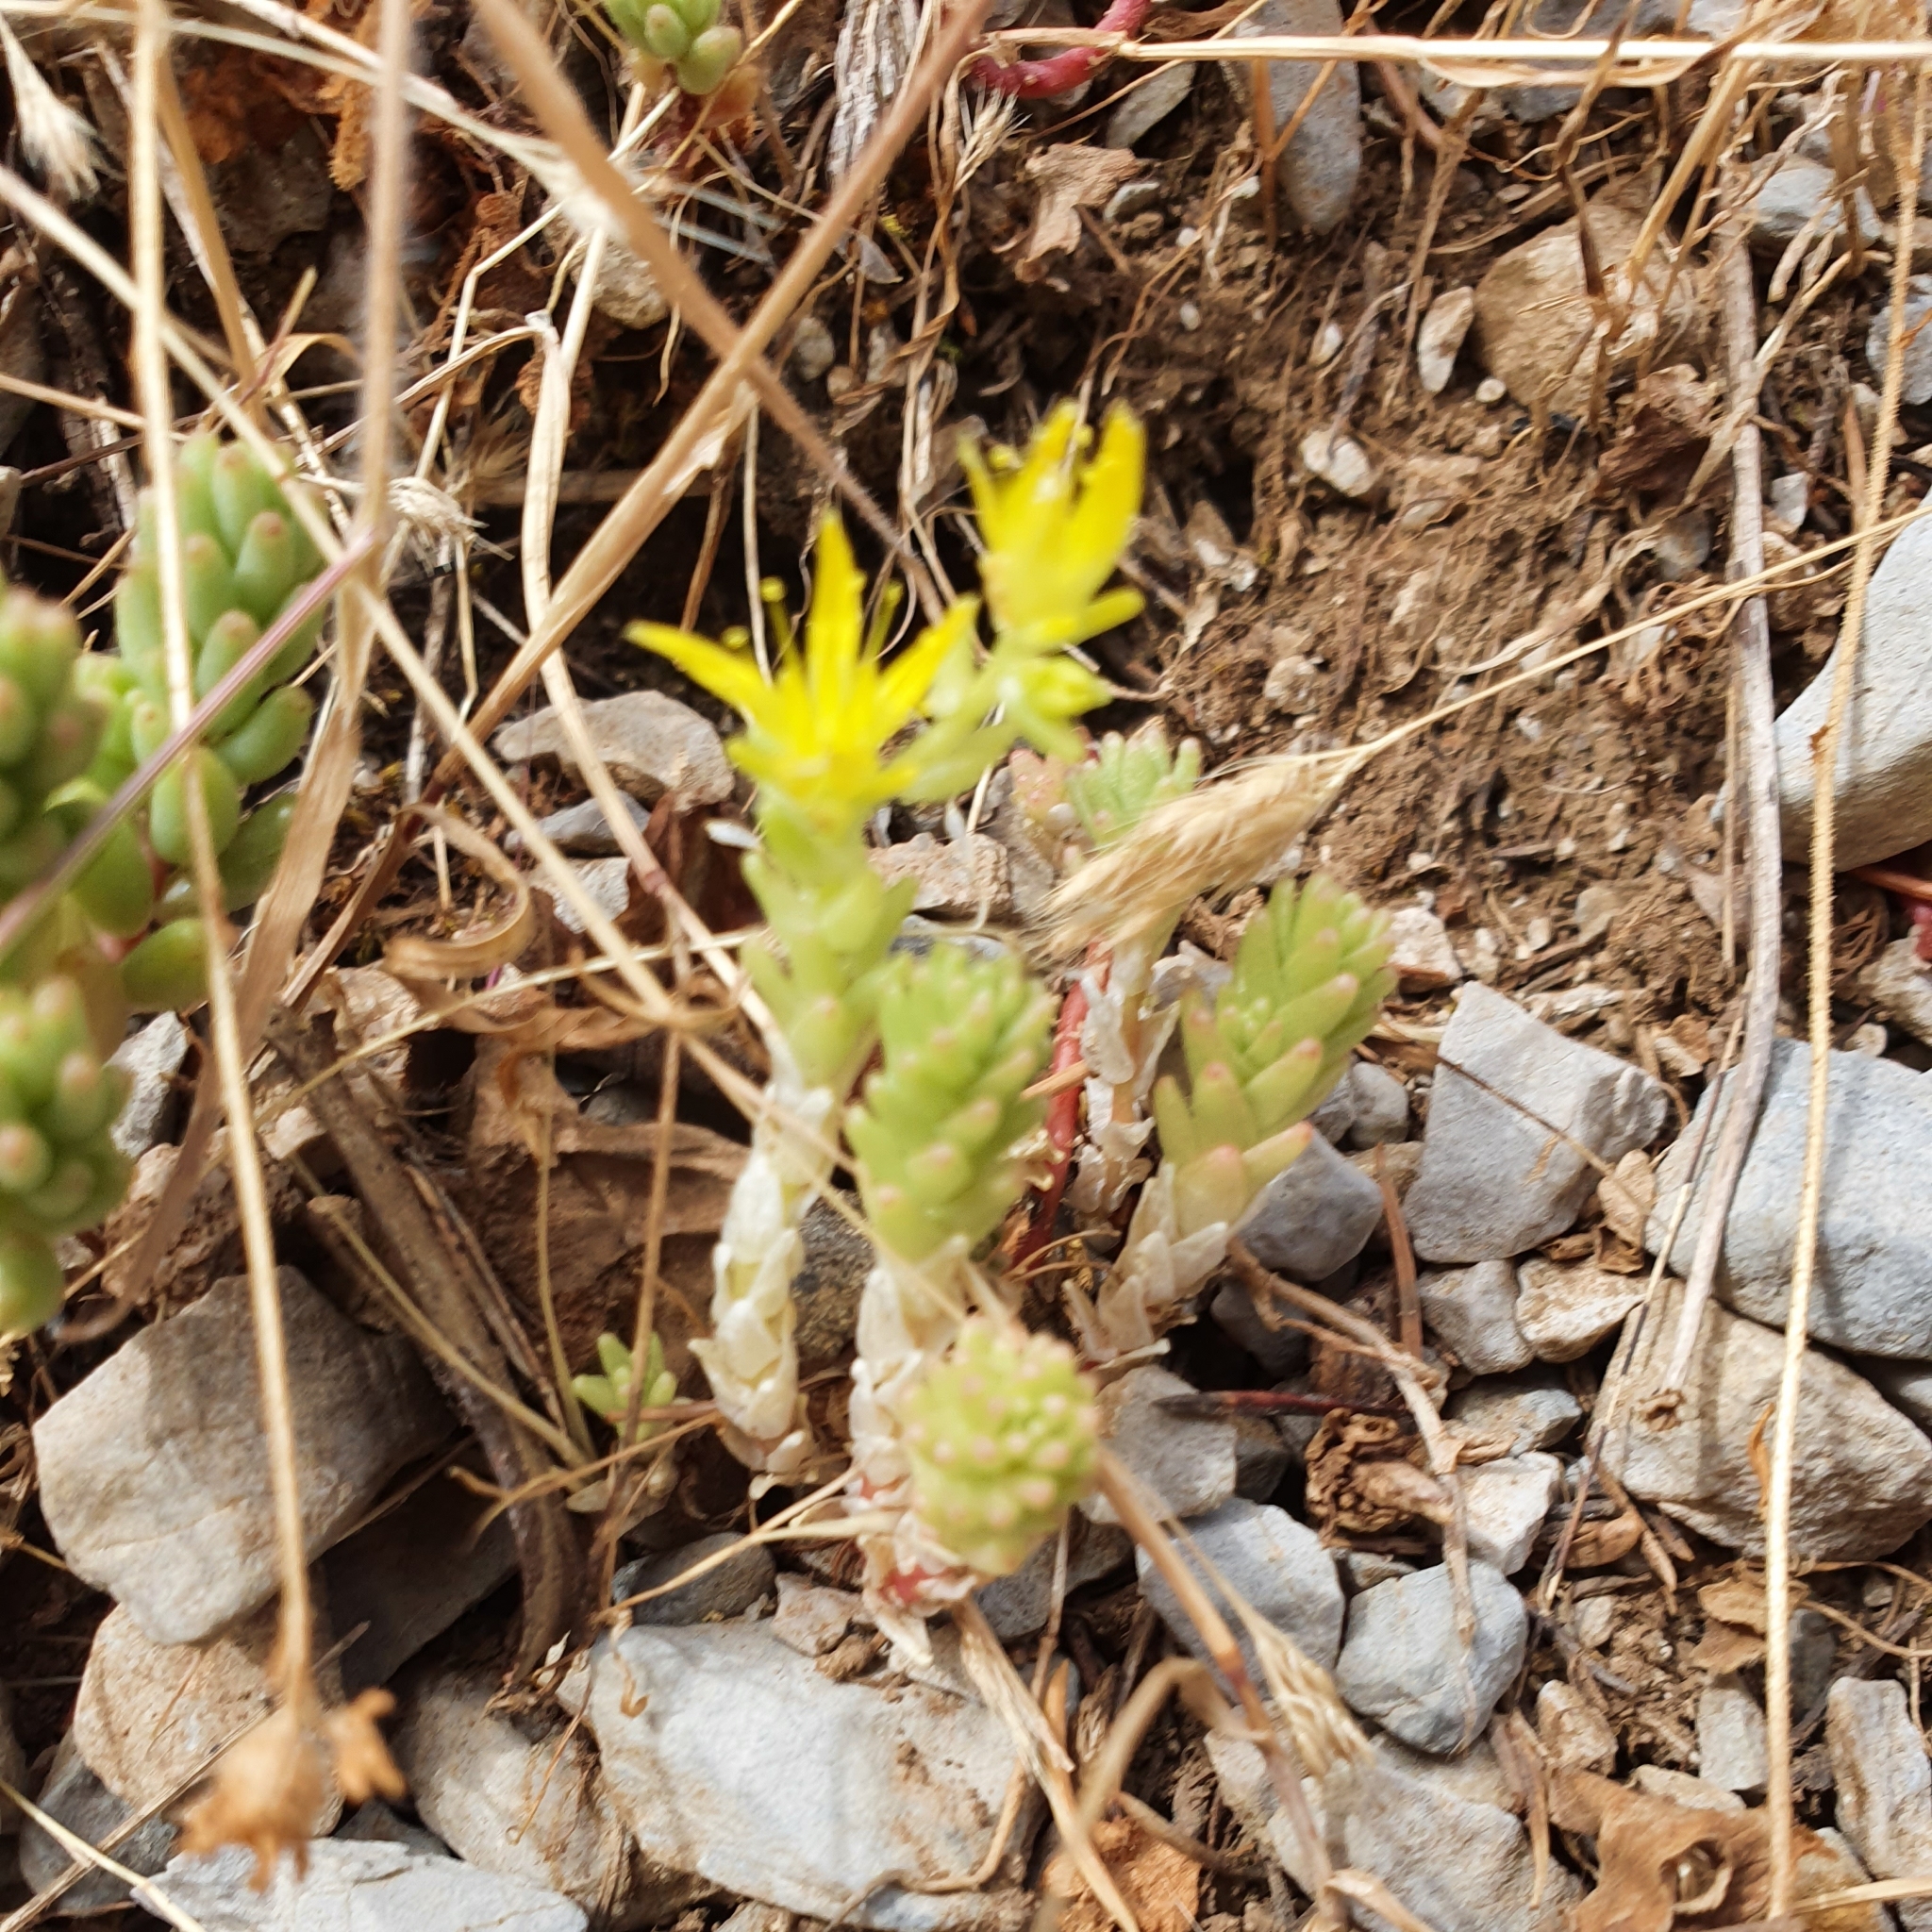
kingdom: Plantae
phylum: Tracheophyta
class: Magnoliopsida
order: Saxifragales
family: Crassulaceae
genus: Sedum
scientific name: Sedum acre
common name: Biting stonecrop
